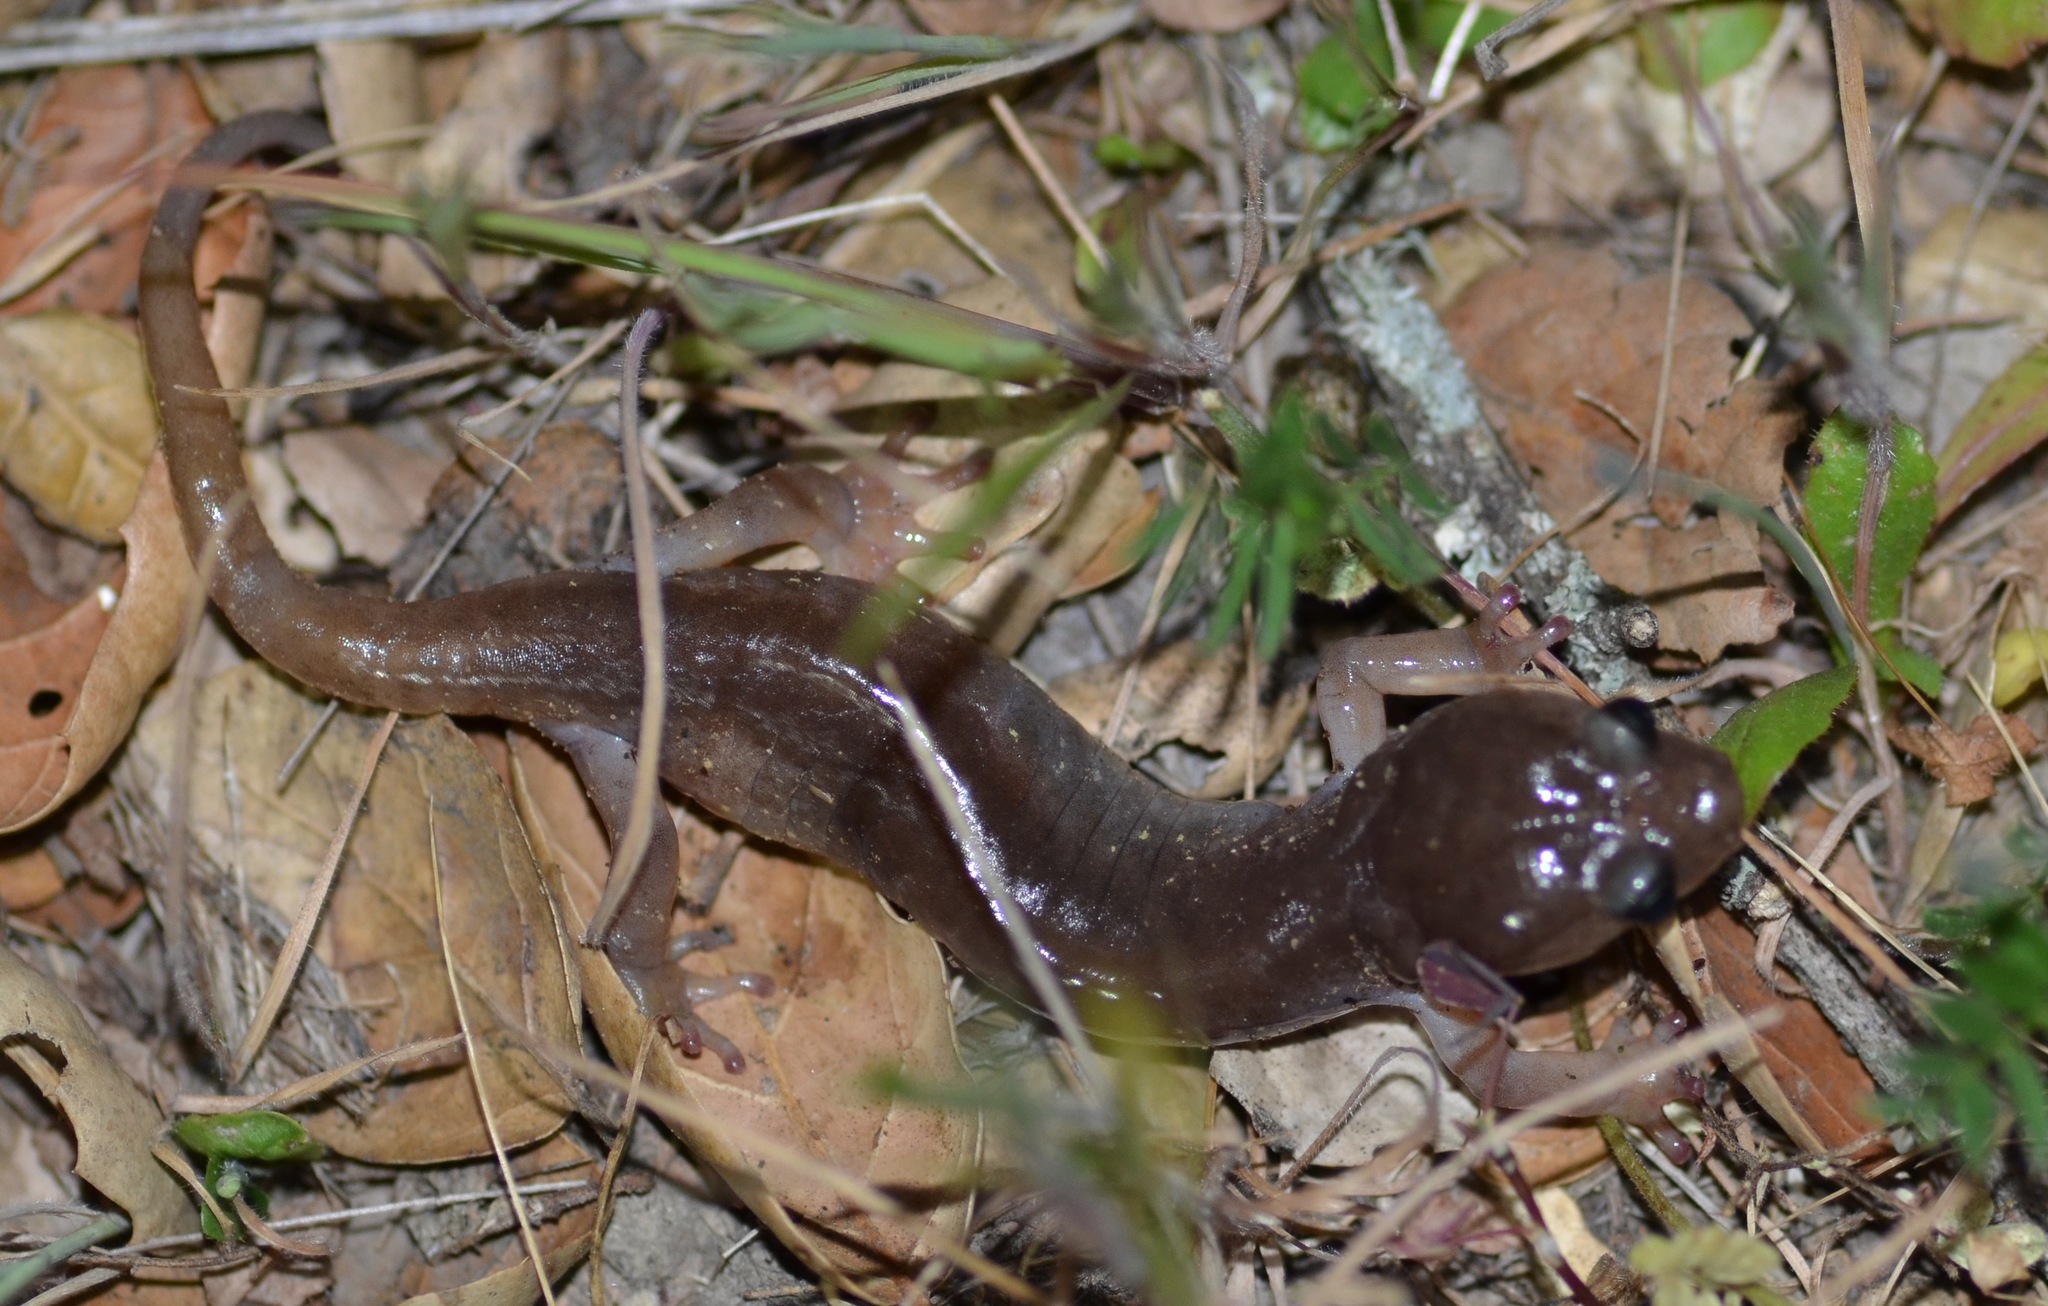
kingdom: Animalia
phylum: Chordata
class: Amphibia
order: Caudata
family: Plethodontidae
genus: Aneides
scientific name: Aneides lugubris
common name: Arboreal salamander
